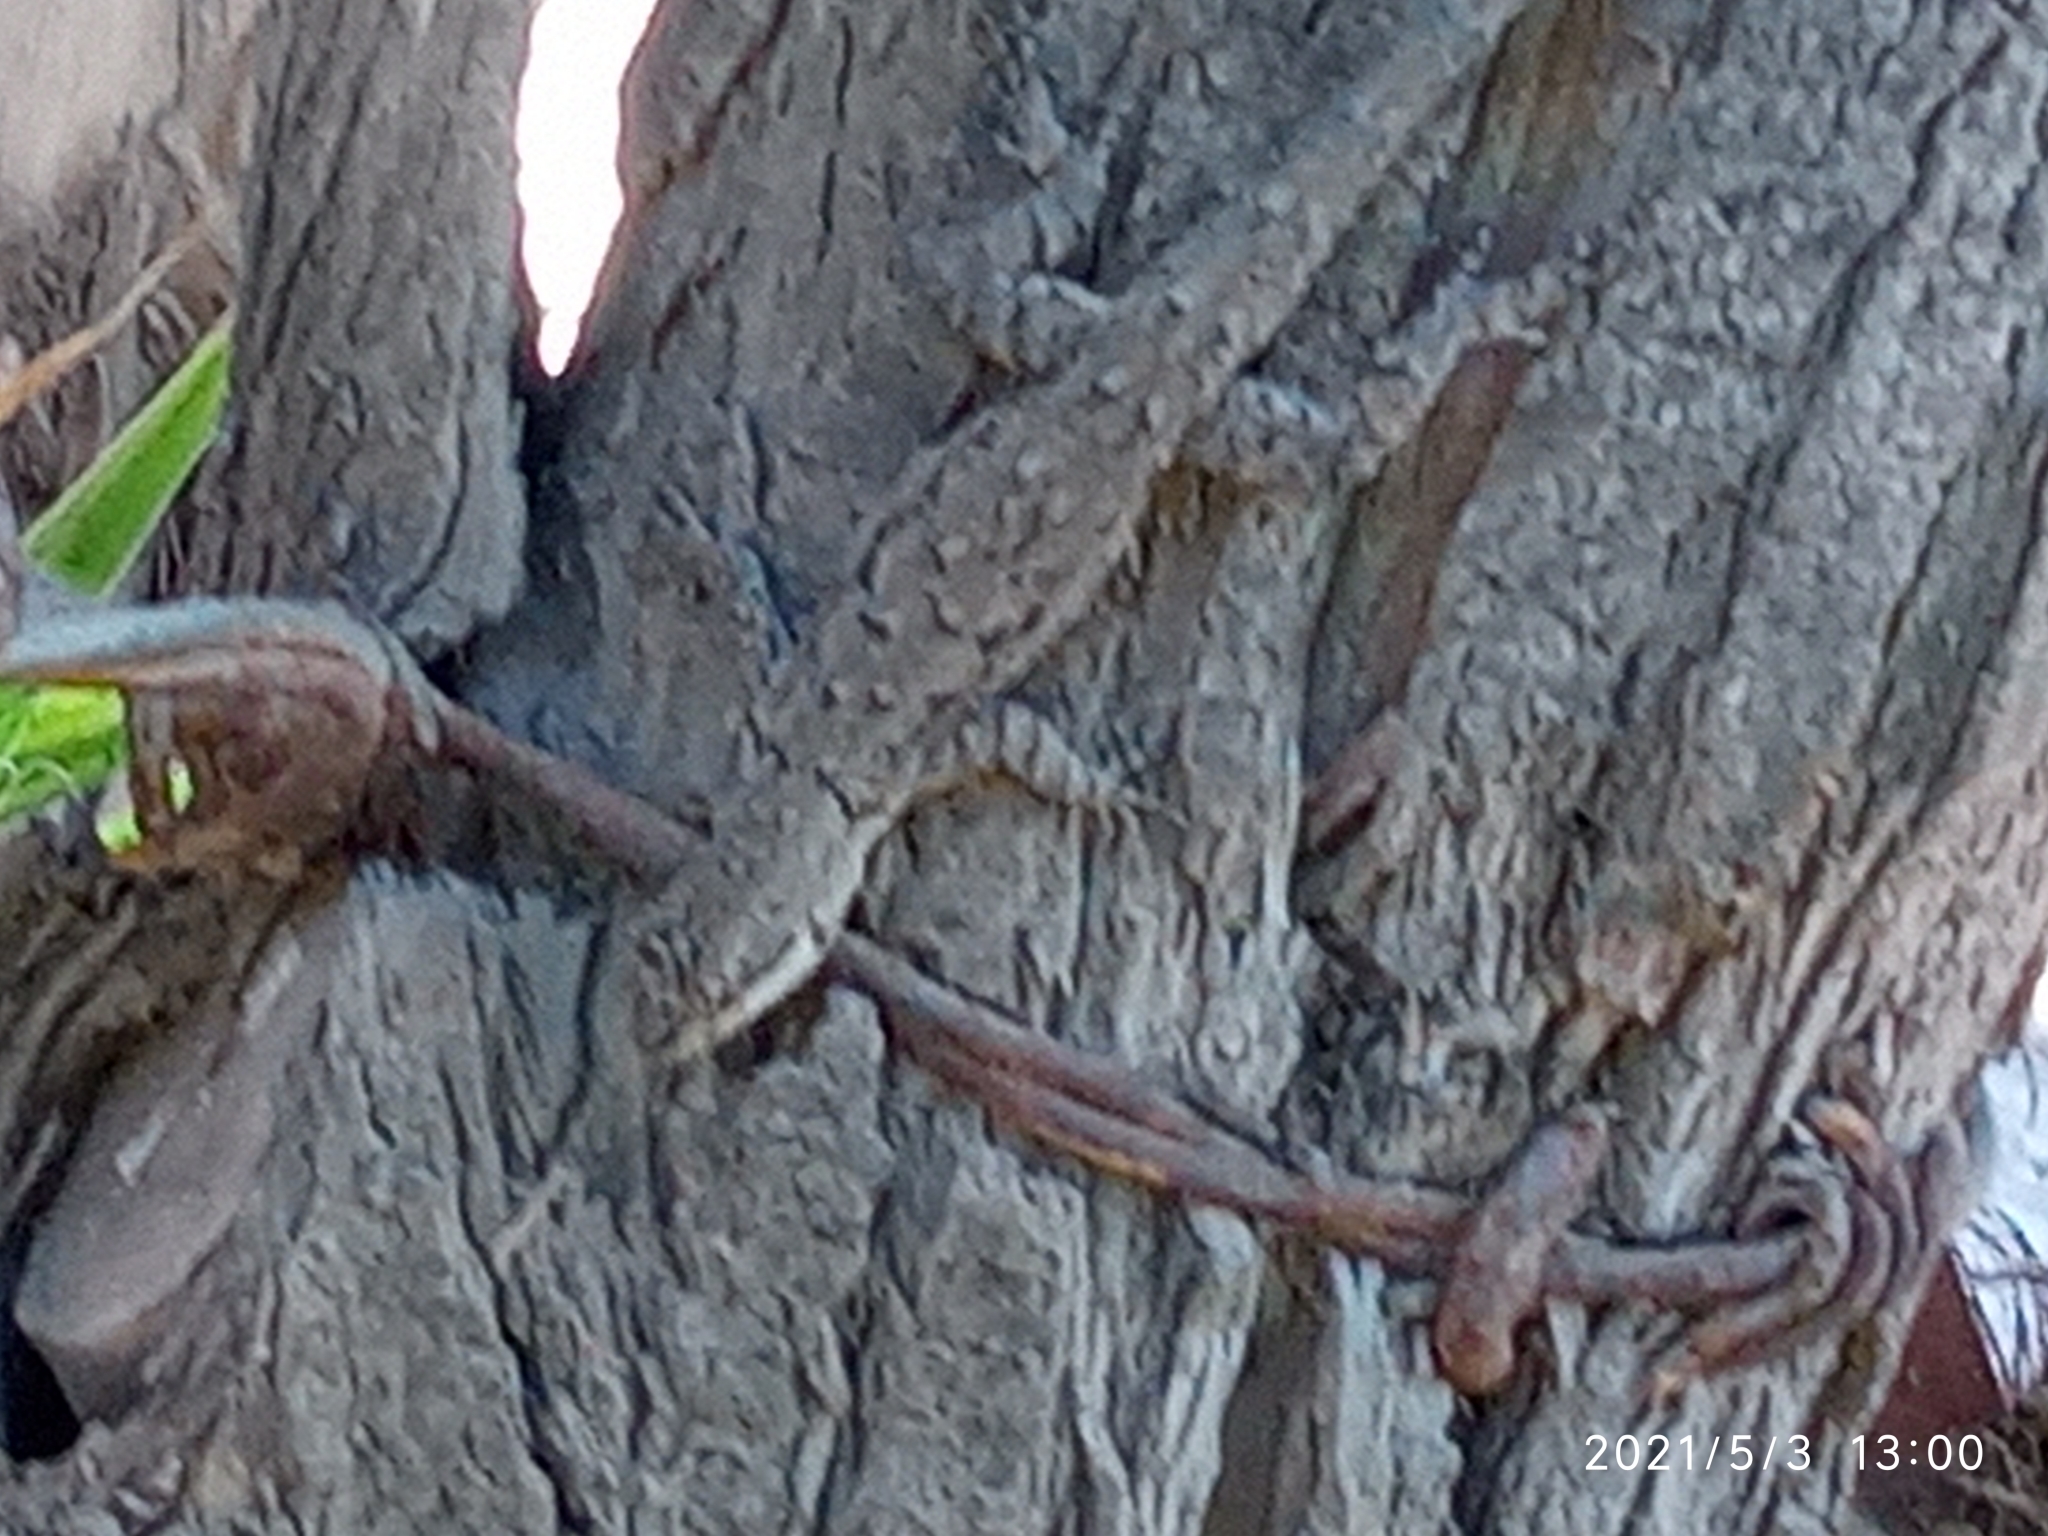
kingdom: Animalia
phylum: Chordata
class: Squamata
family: Phrynosomatidae
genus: Urosaurus
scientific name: Urosaurus ornatus
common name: Ornate tree lizard
